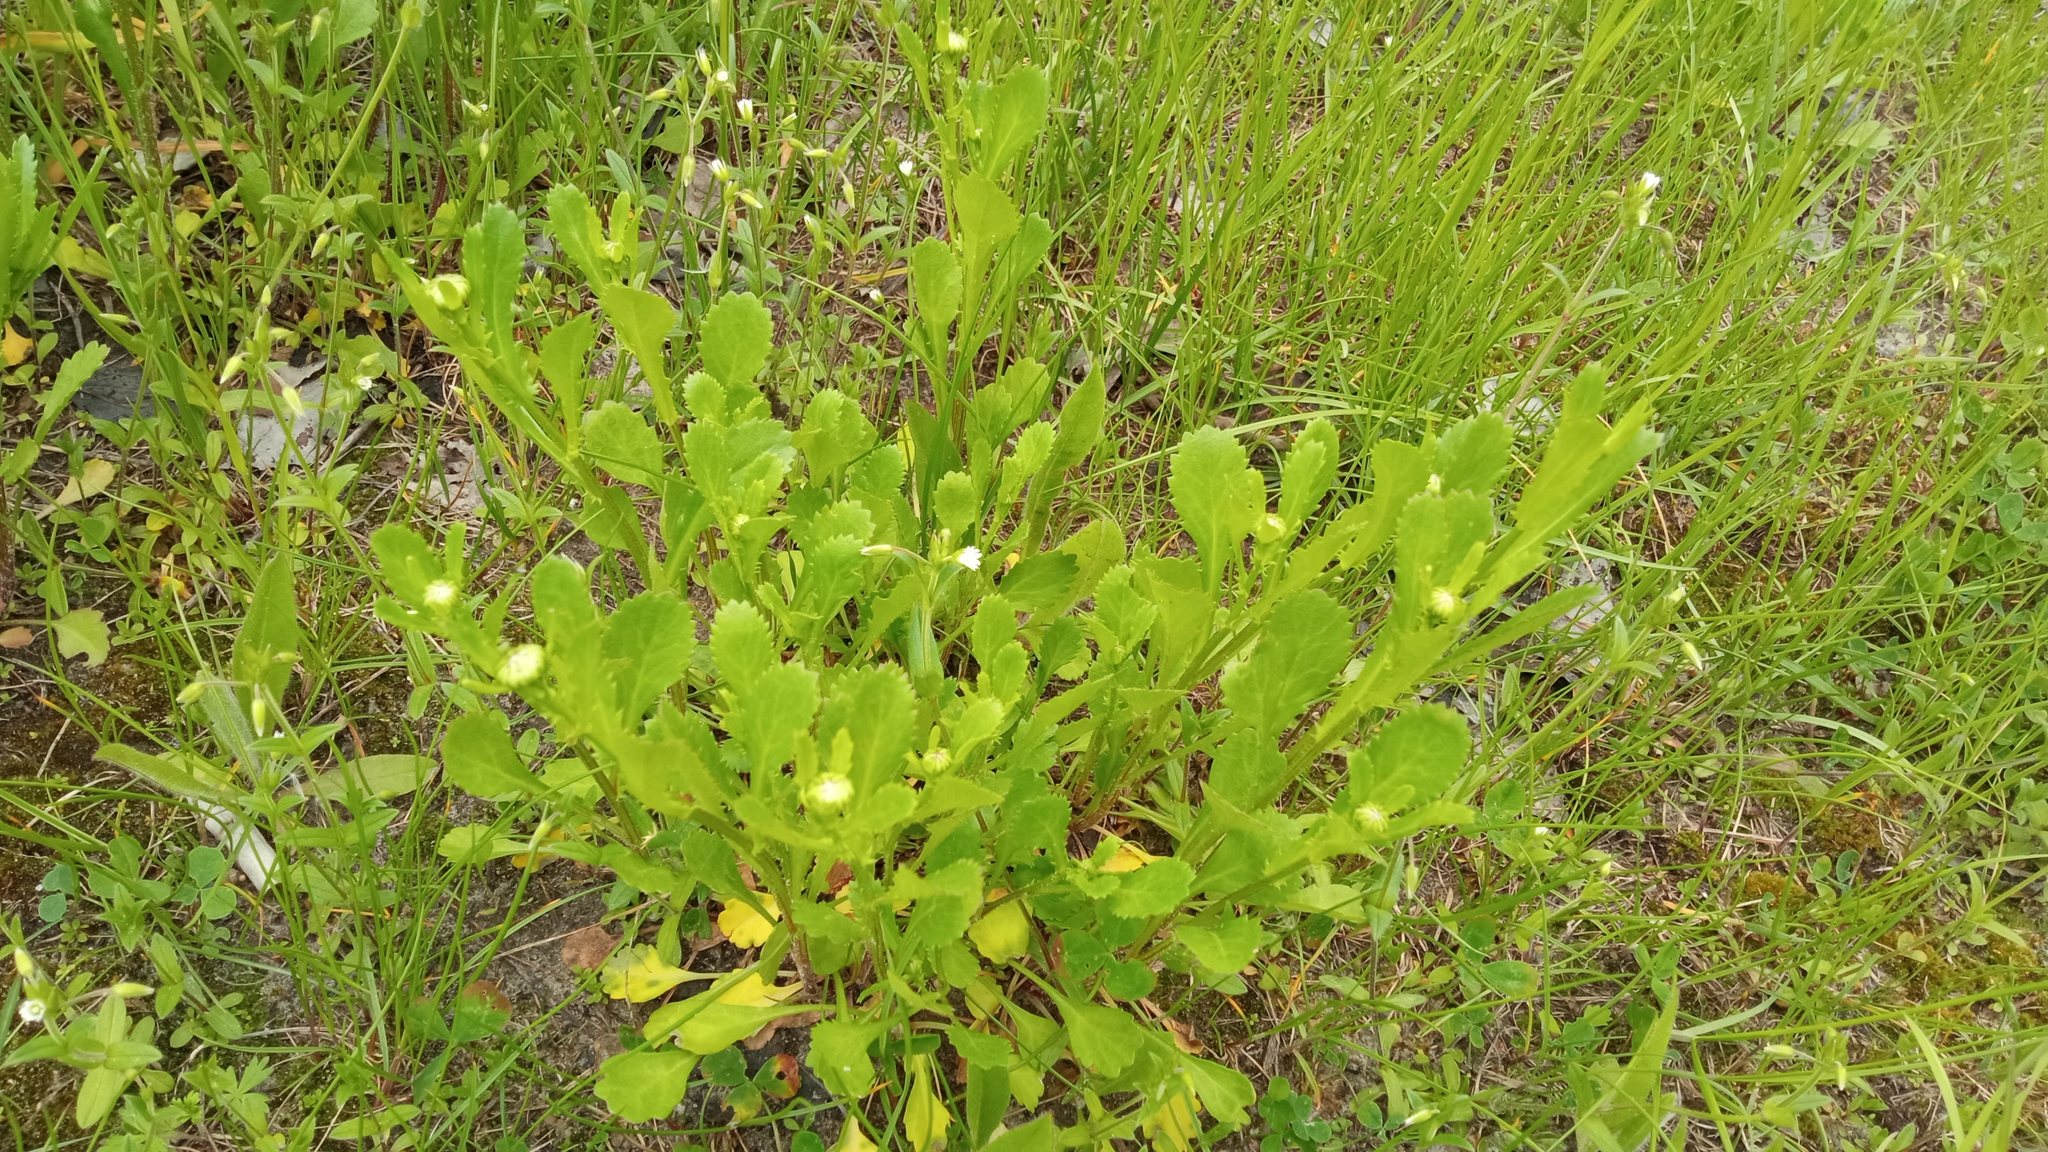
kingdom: Plantae
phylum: Tracheophyta
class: Magnoliopsida
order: Asterales
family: Asteraceae
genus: Leucanthemum
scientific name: Leucanthemum ircutianum
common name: Daisy
